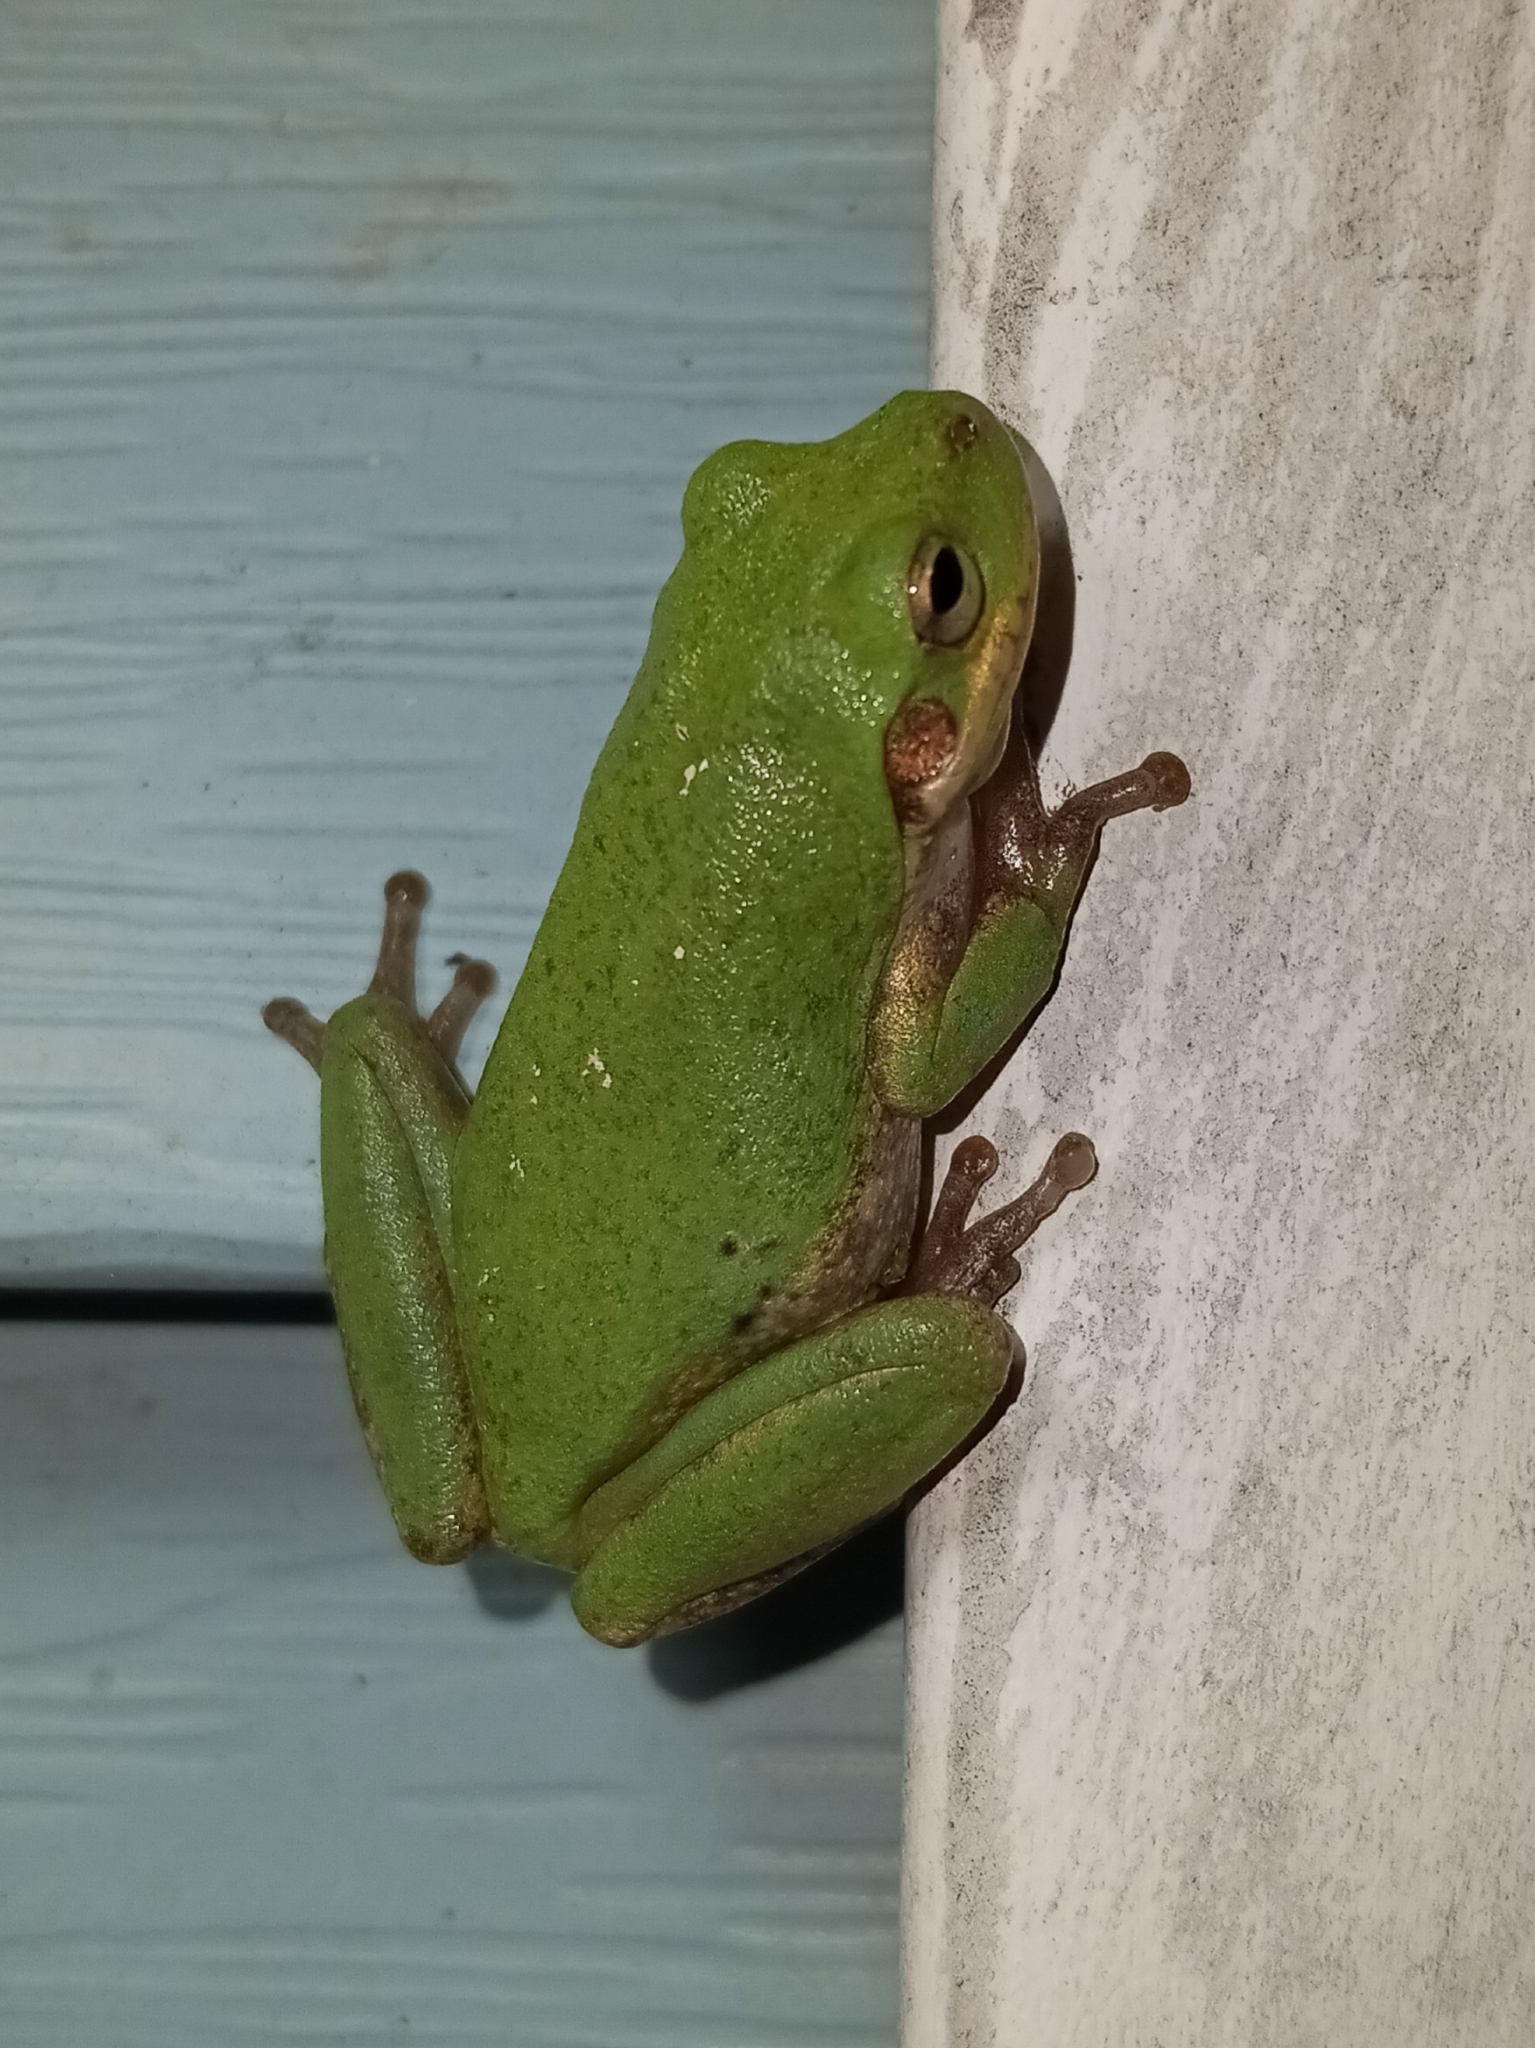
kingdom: Animalia
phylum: Chordata
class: Amphibia
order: Anura
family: Hylidae
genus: Dryophytes
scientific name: Dryophytes squirellus
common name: Squirrel treefrog
